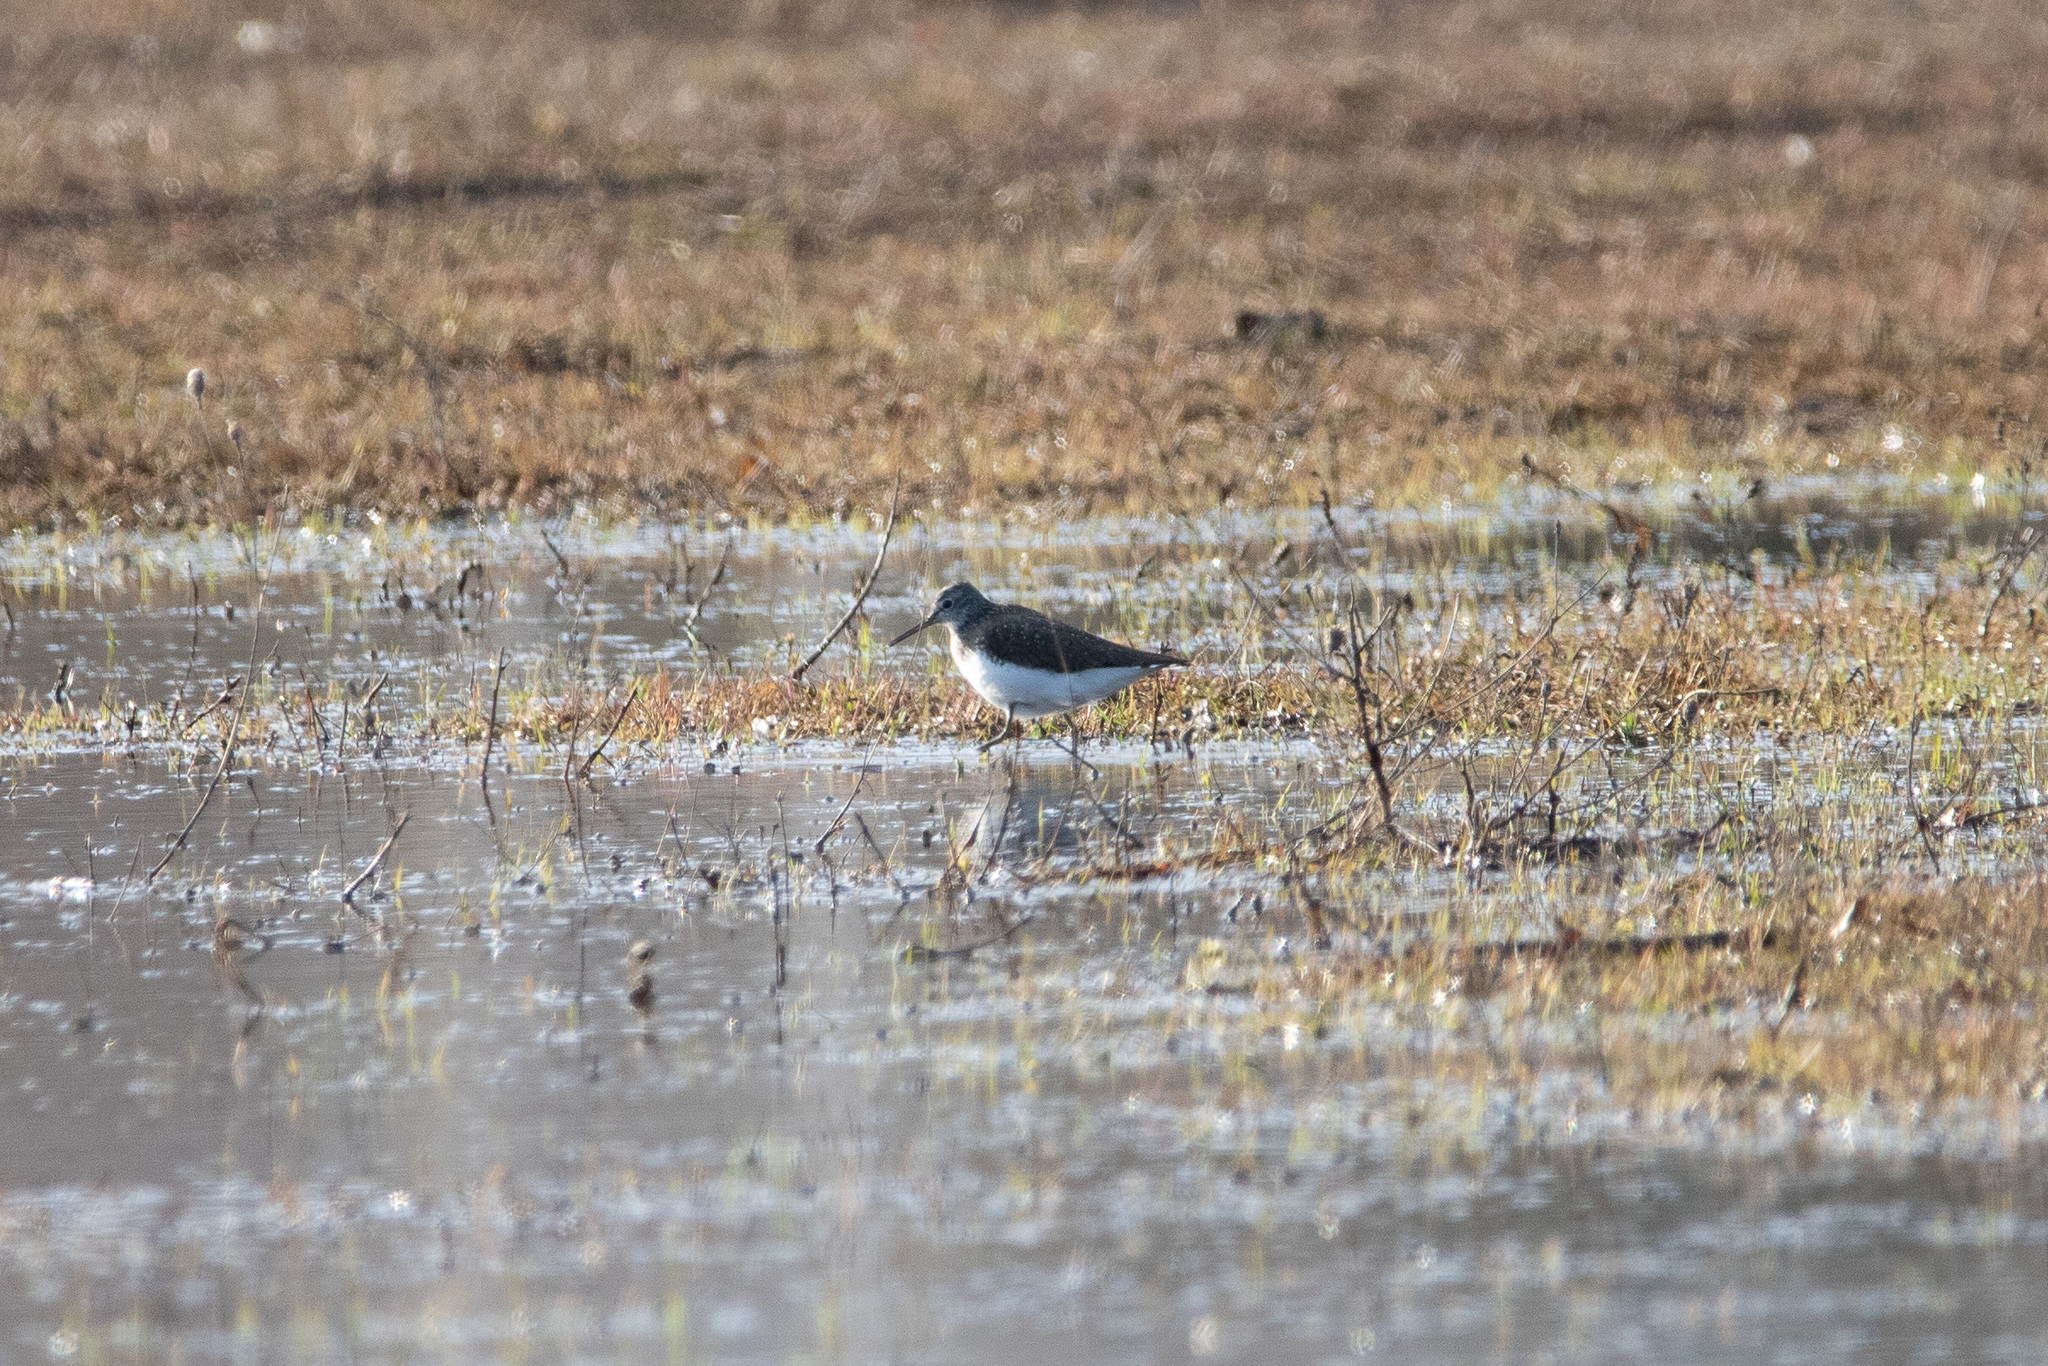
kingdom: Animalia
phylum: Chordata
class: Aves
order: Charadriiformes
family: Scolopacidae
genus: Tringa
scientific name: Tringa ochropus
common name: Green sandpiper
